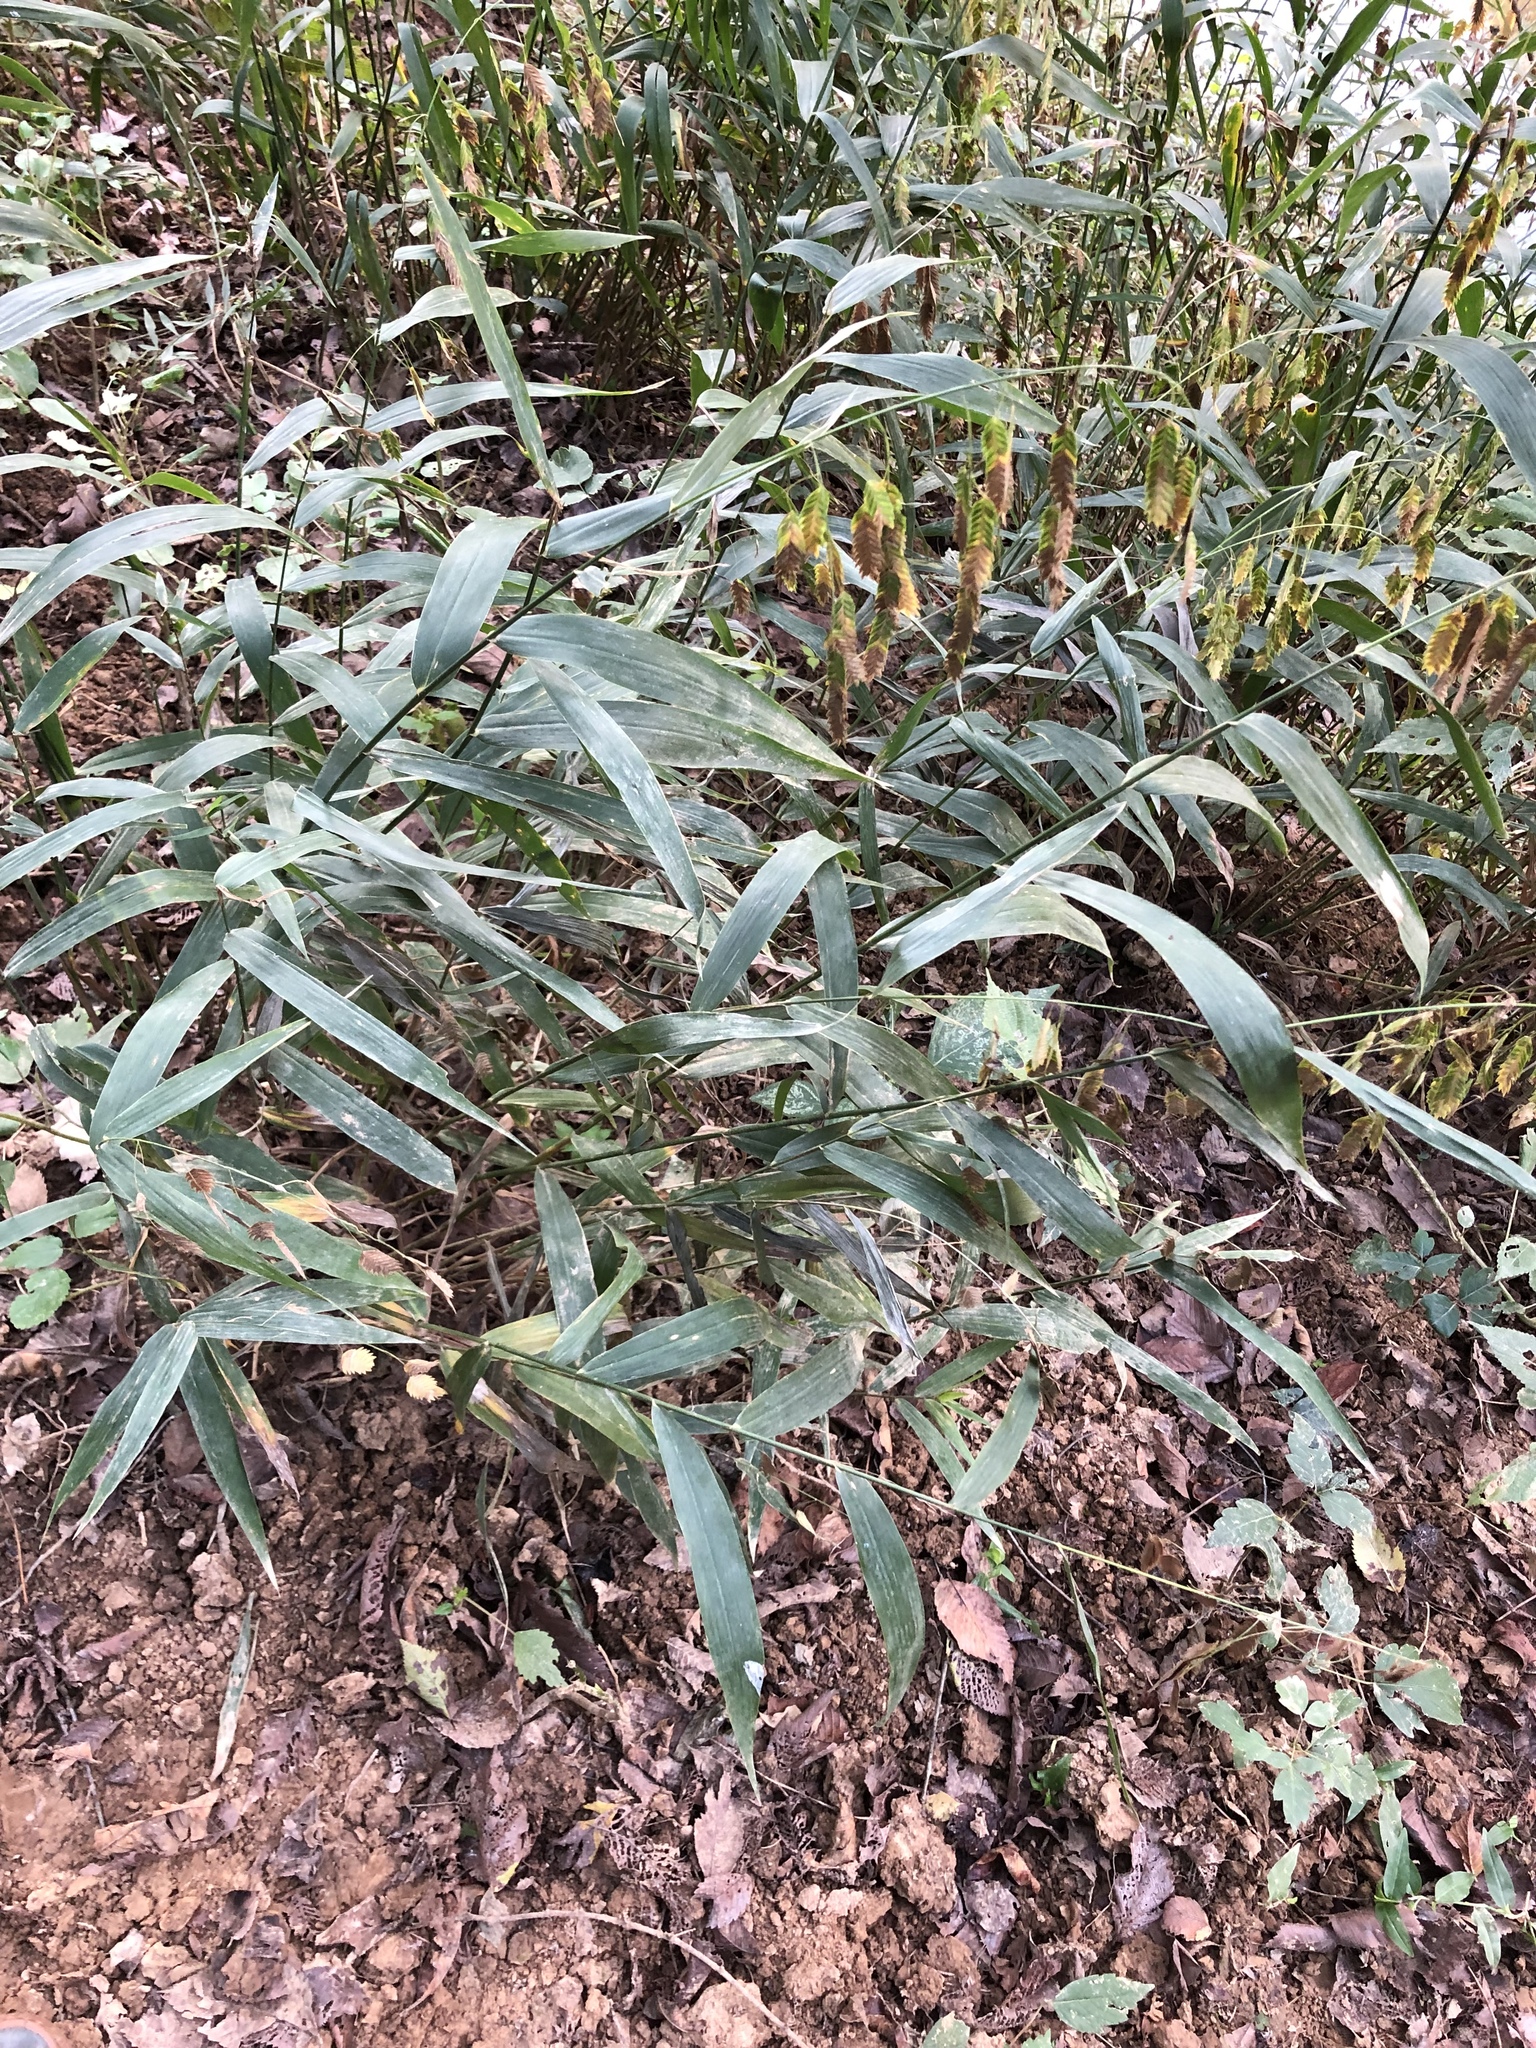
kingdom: Plantae
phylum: Tracheophyta
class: Liliopsida
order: Poales
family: Poaceae
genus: Chasmanthium
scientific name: Chasmanthium latifolium
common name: Broad-leaved chasmanthium
